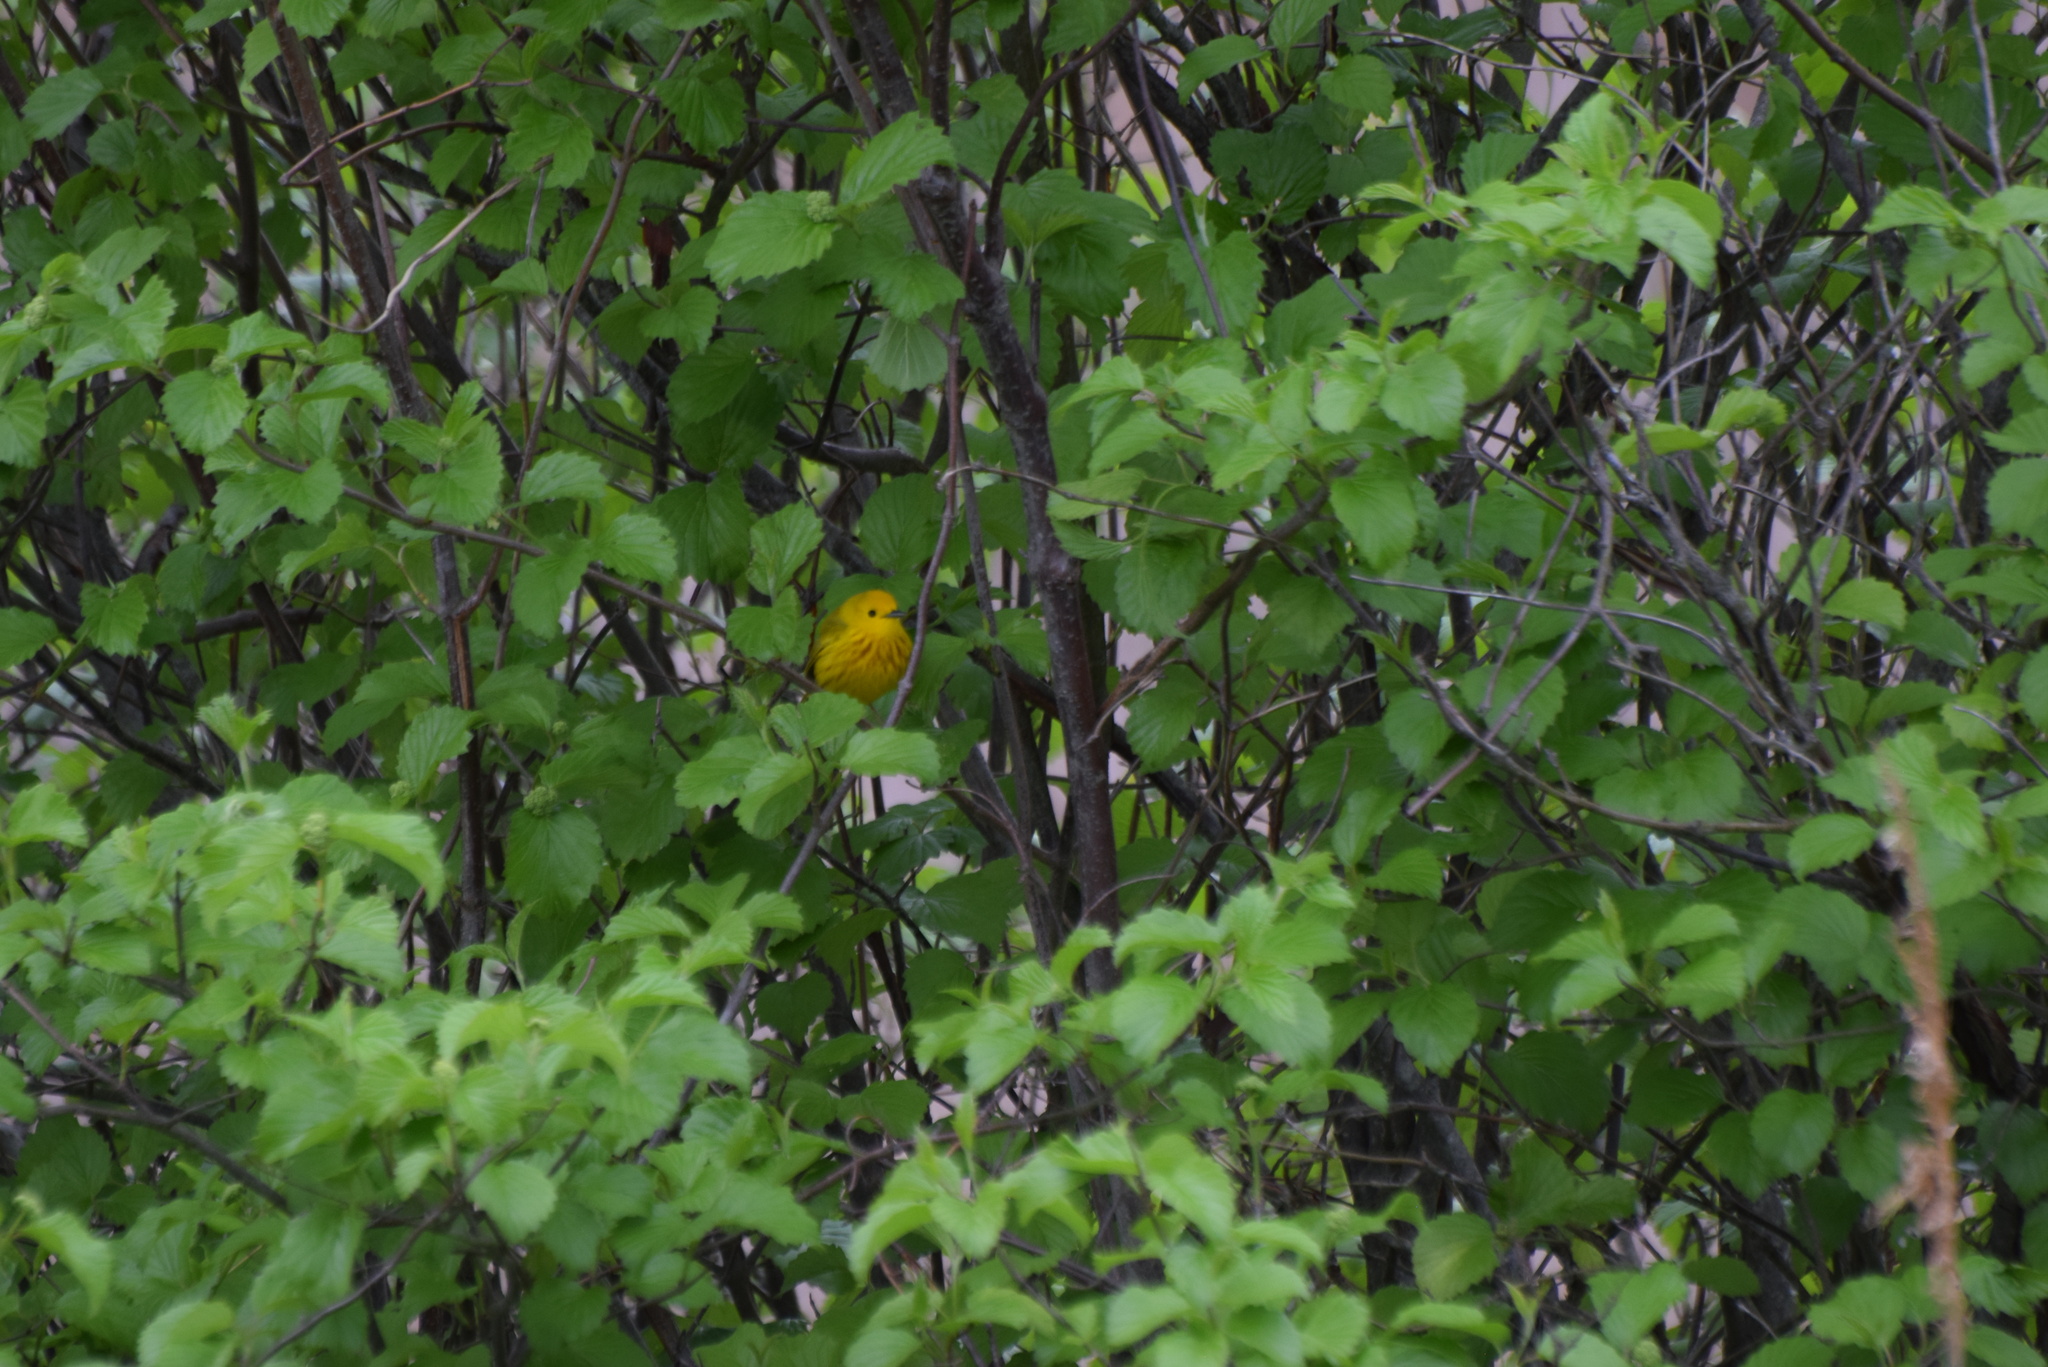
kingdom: Animalia
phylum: Chordata
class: Aves
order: Passeriformes
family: Parulidae
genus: Setophaga
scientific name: Setophaga petechia
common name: Yellow warbler
